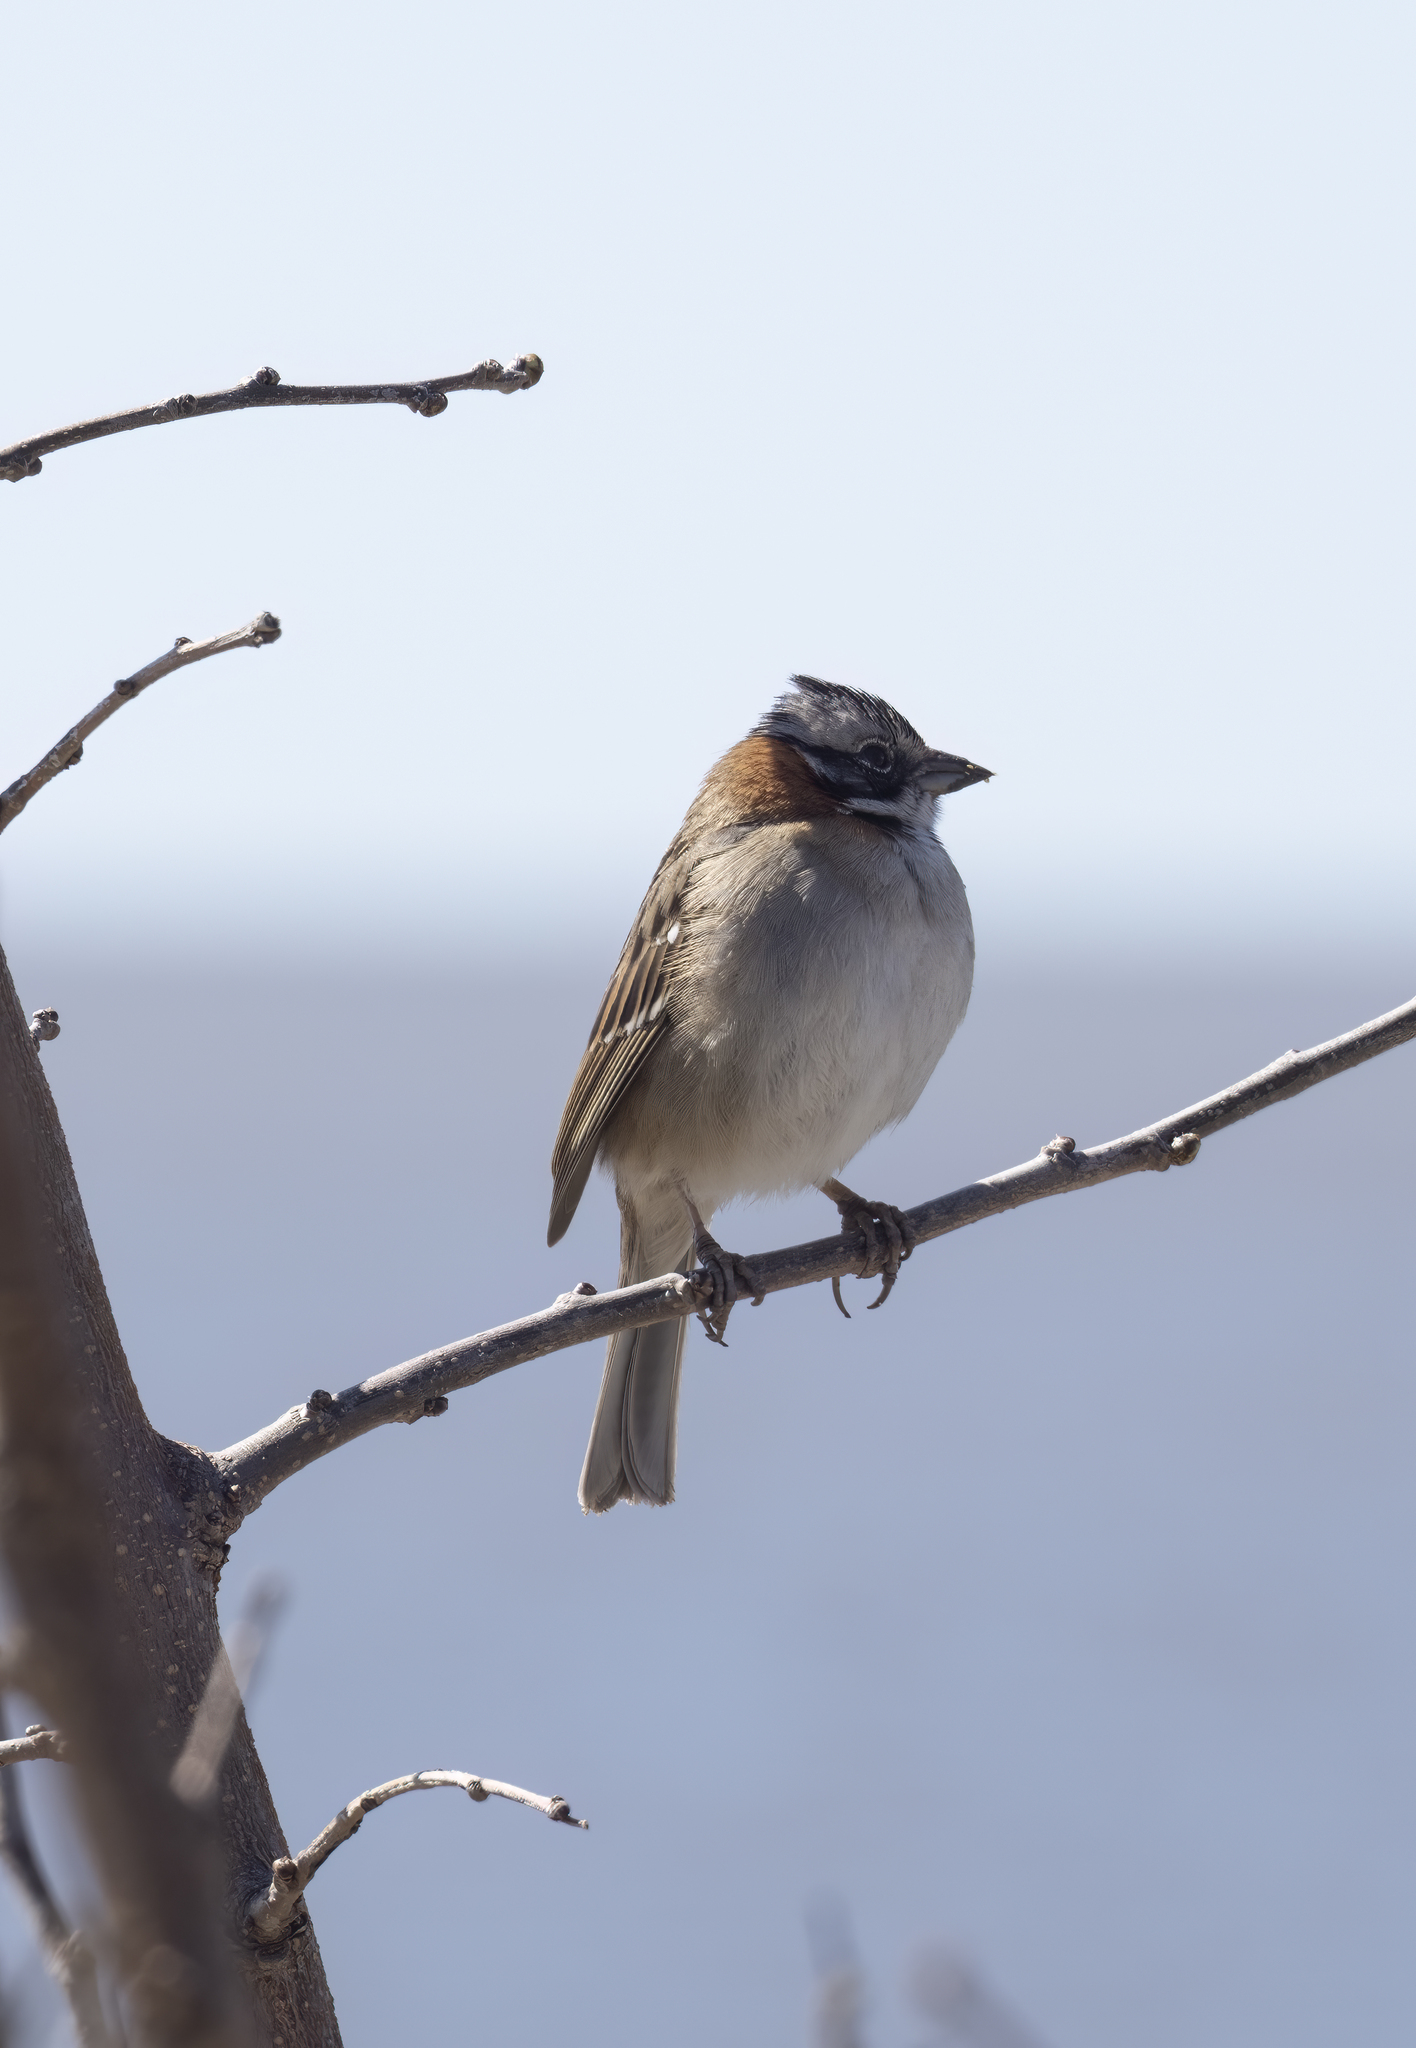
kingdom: Animalia
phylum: Chordata
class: Aves
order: Passeriformes
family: Passerellidae
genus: Zonotrichia
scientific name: Zonotrichia capensis
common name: Rufous-collared sparrow
